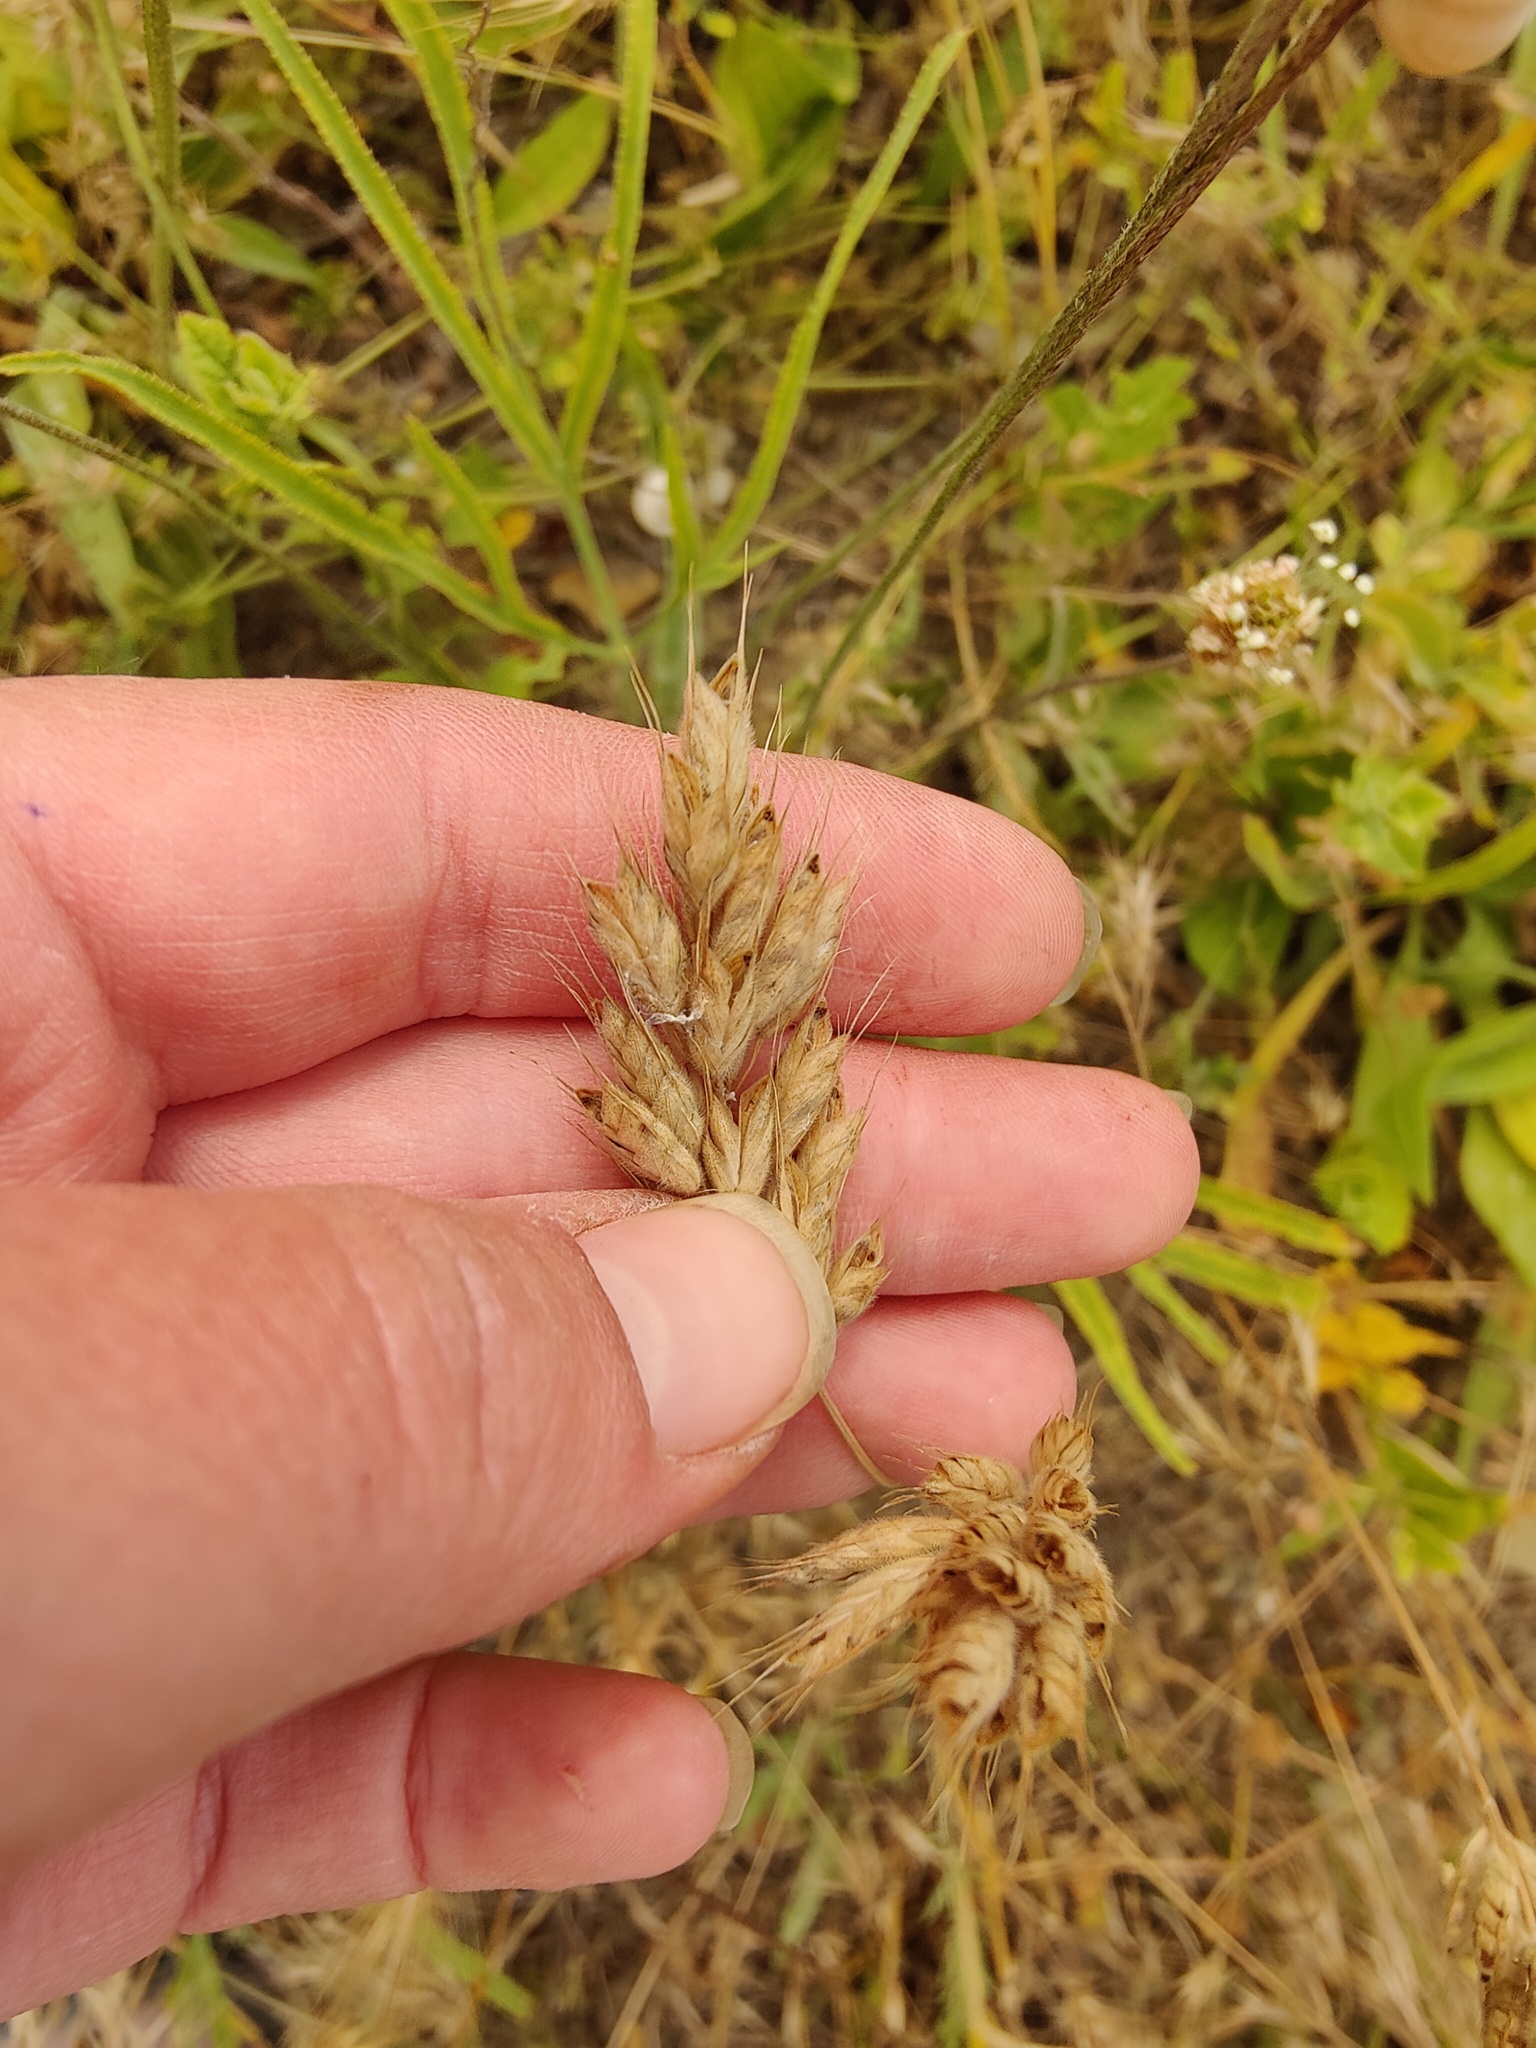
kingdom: Plantae
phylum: Tracheophyta
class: Liliopsida
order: Poales
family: Poaceae
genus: Bromus
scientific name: Bromus hordeaceus
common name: Soft brome
